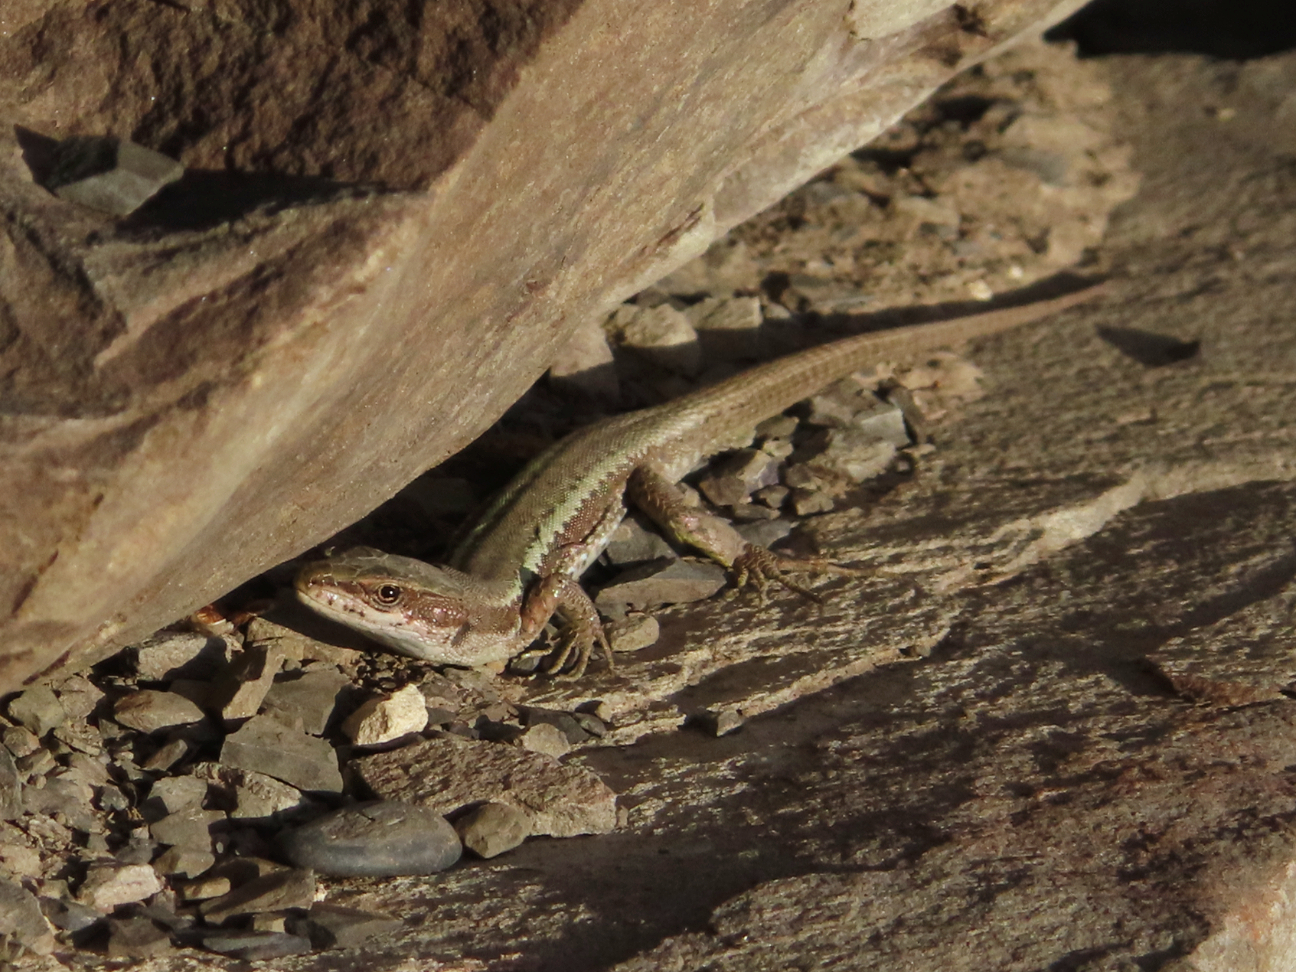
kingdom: Animalia
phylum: Chordata
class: Squamata
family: Lacertidae
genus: Darevskia
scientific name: Darevskia daghestanica
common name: Dagestan lizard
